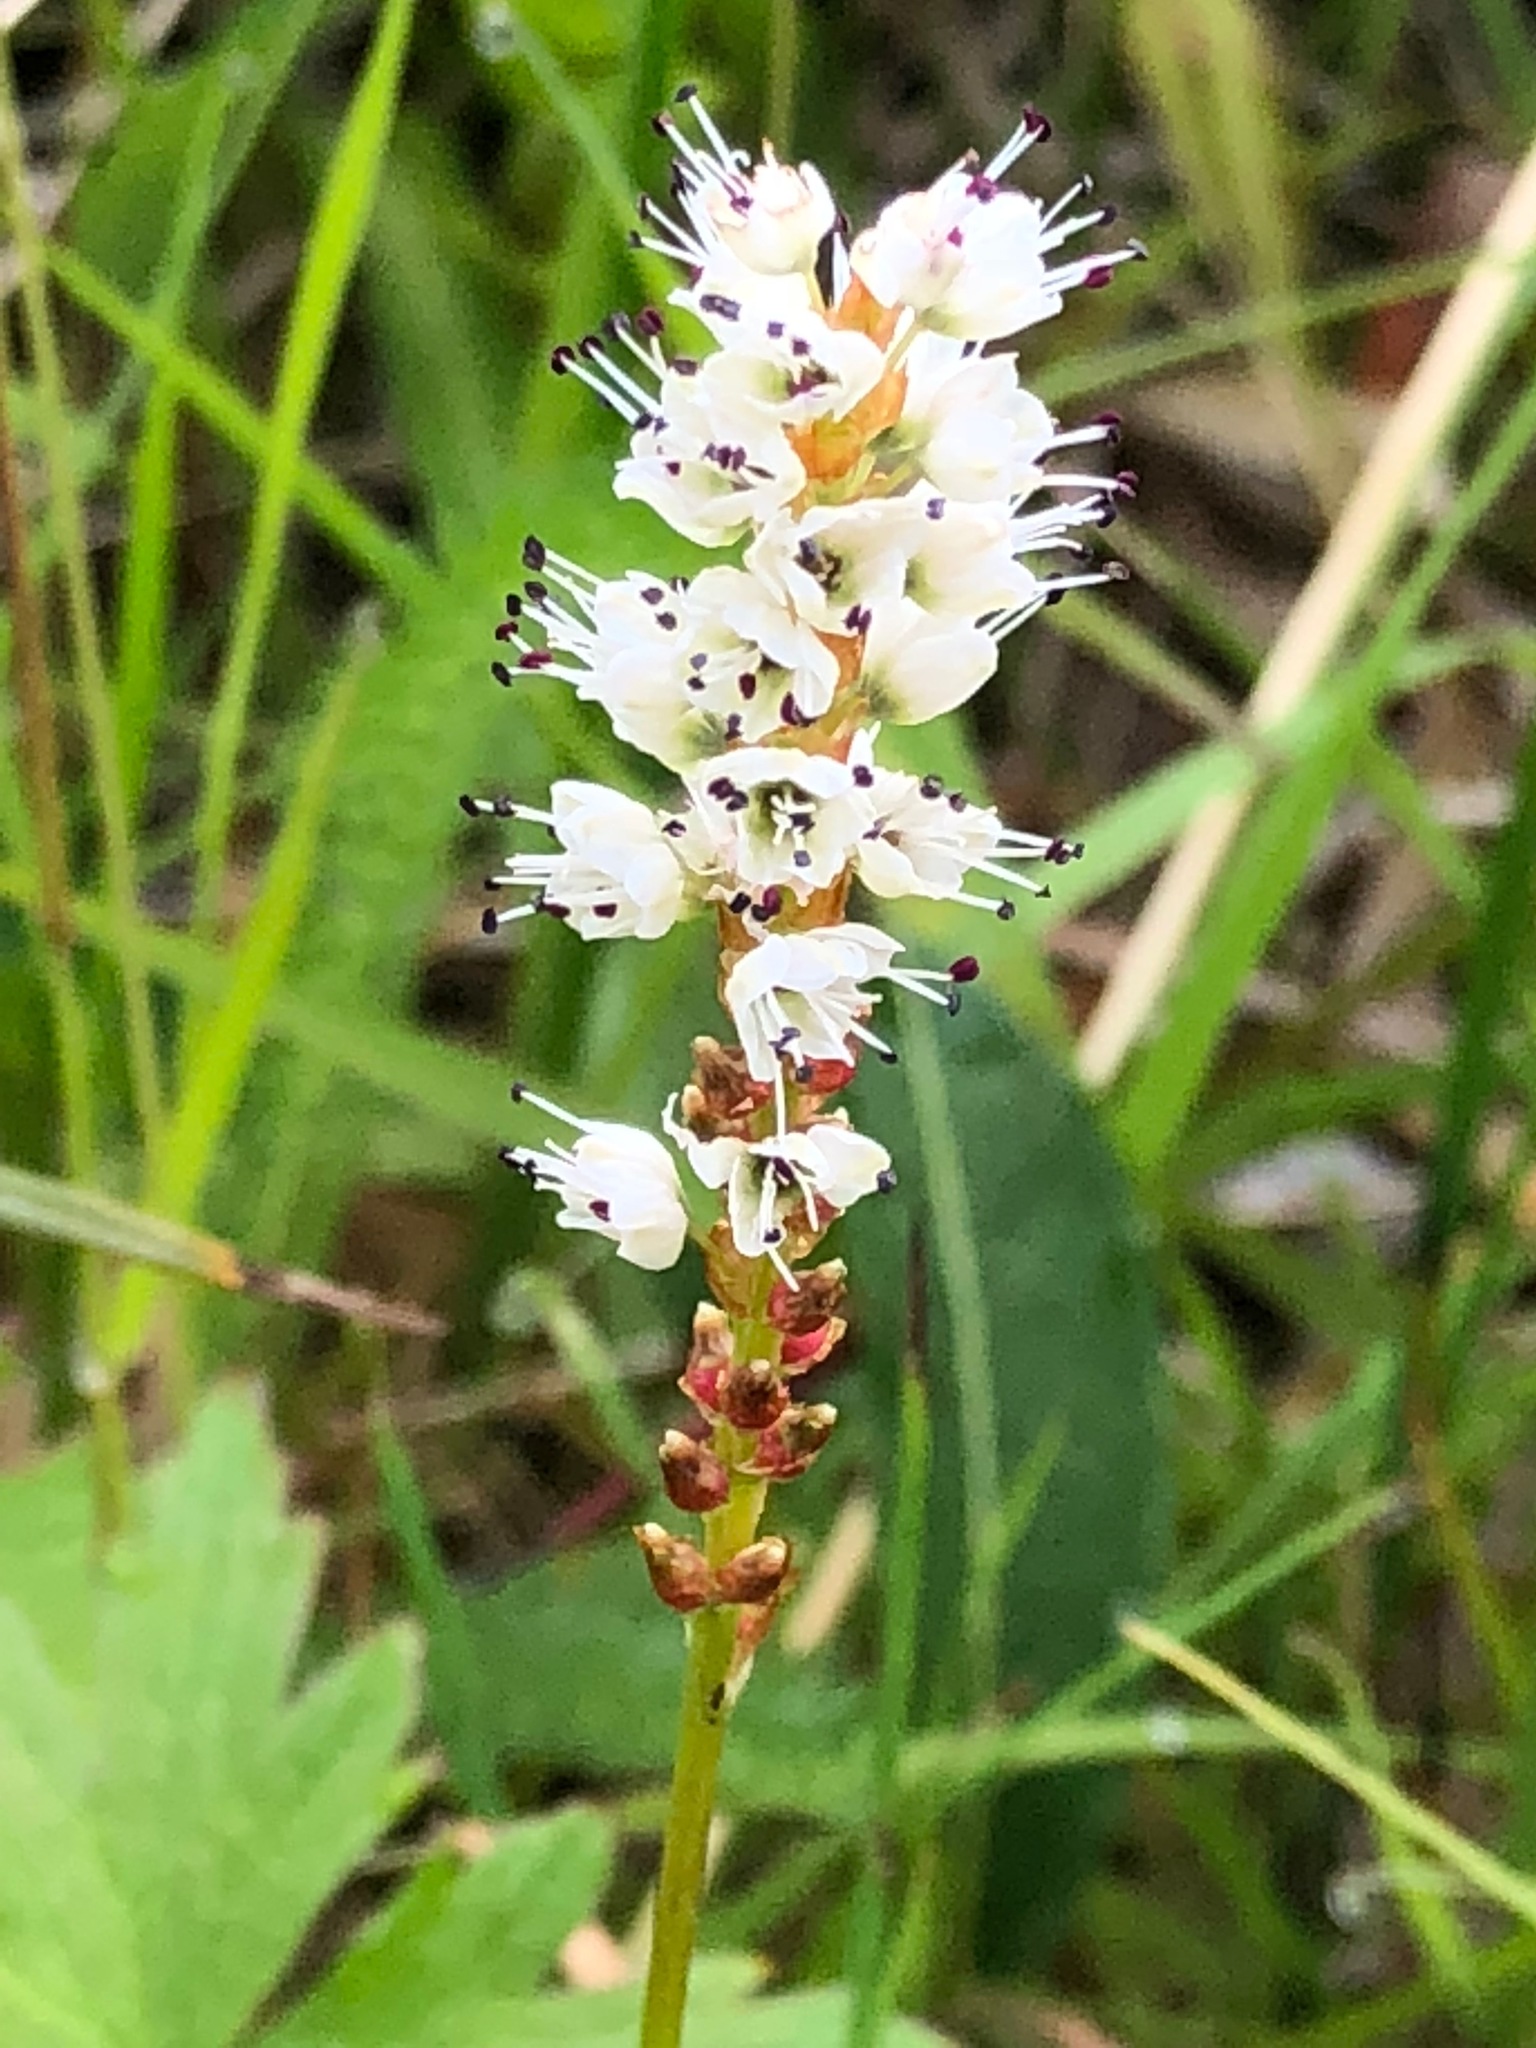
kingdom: Plantae
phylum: Tracheophyta
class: Magnoliopsida
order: Caryophyllales
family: Polygonaceae
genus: Bistorta
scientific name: Bistorta vivipara
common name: Alpine bistort
